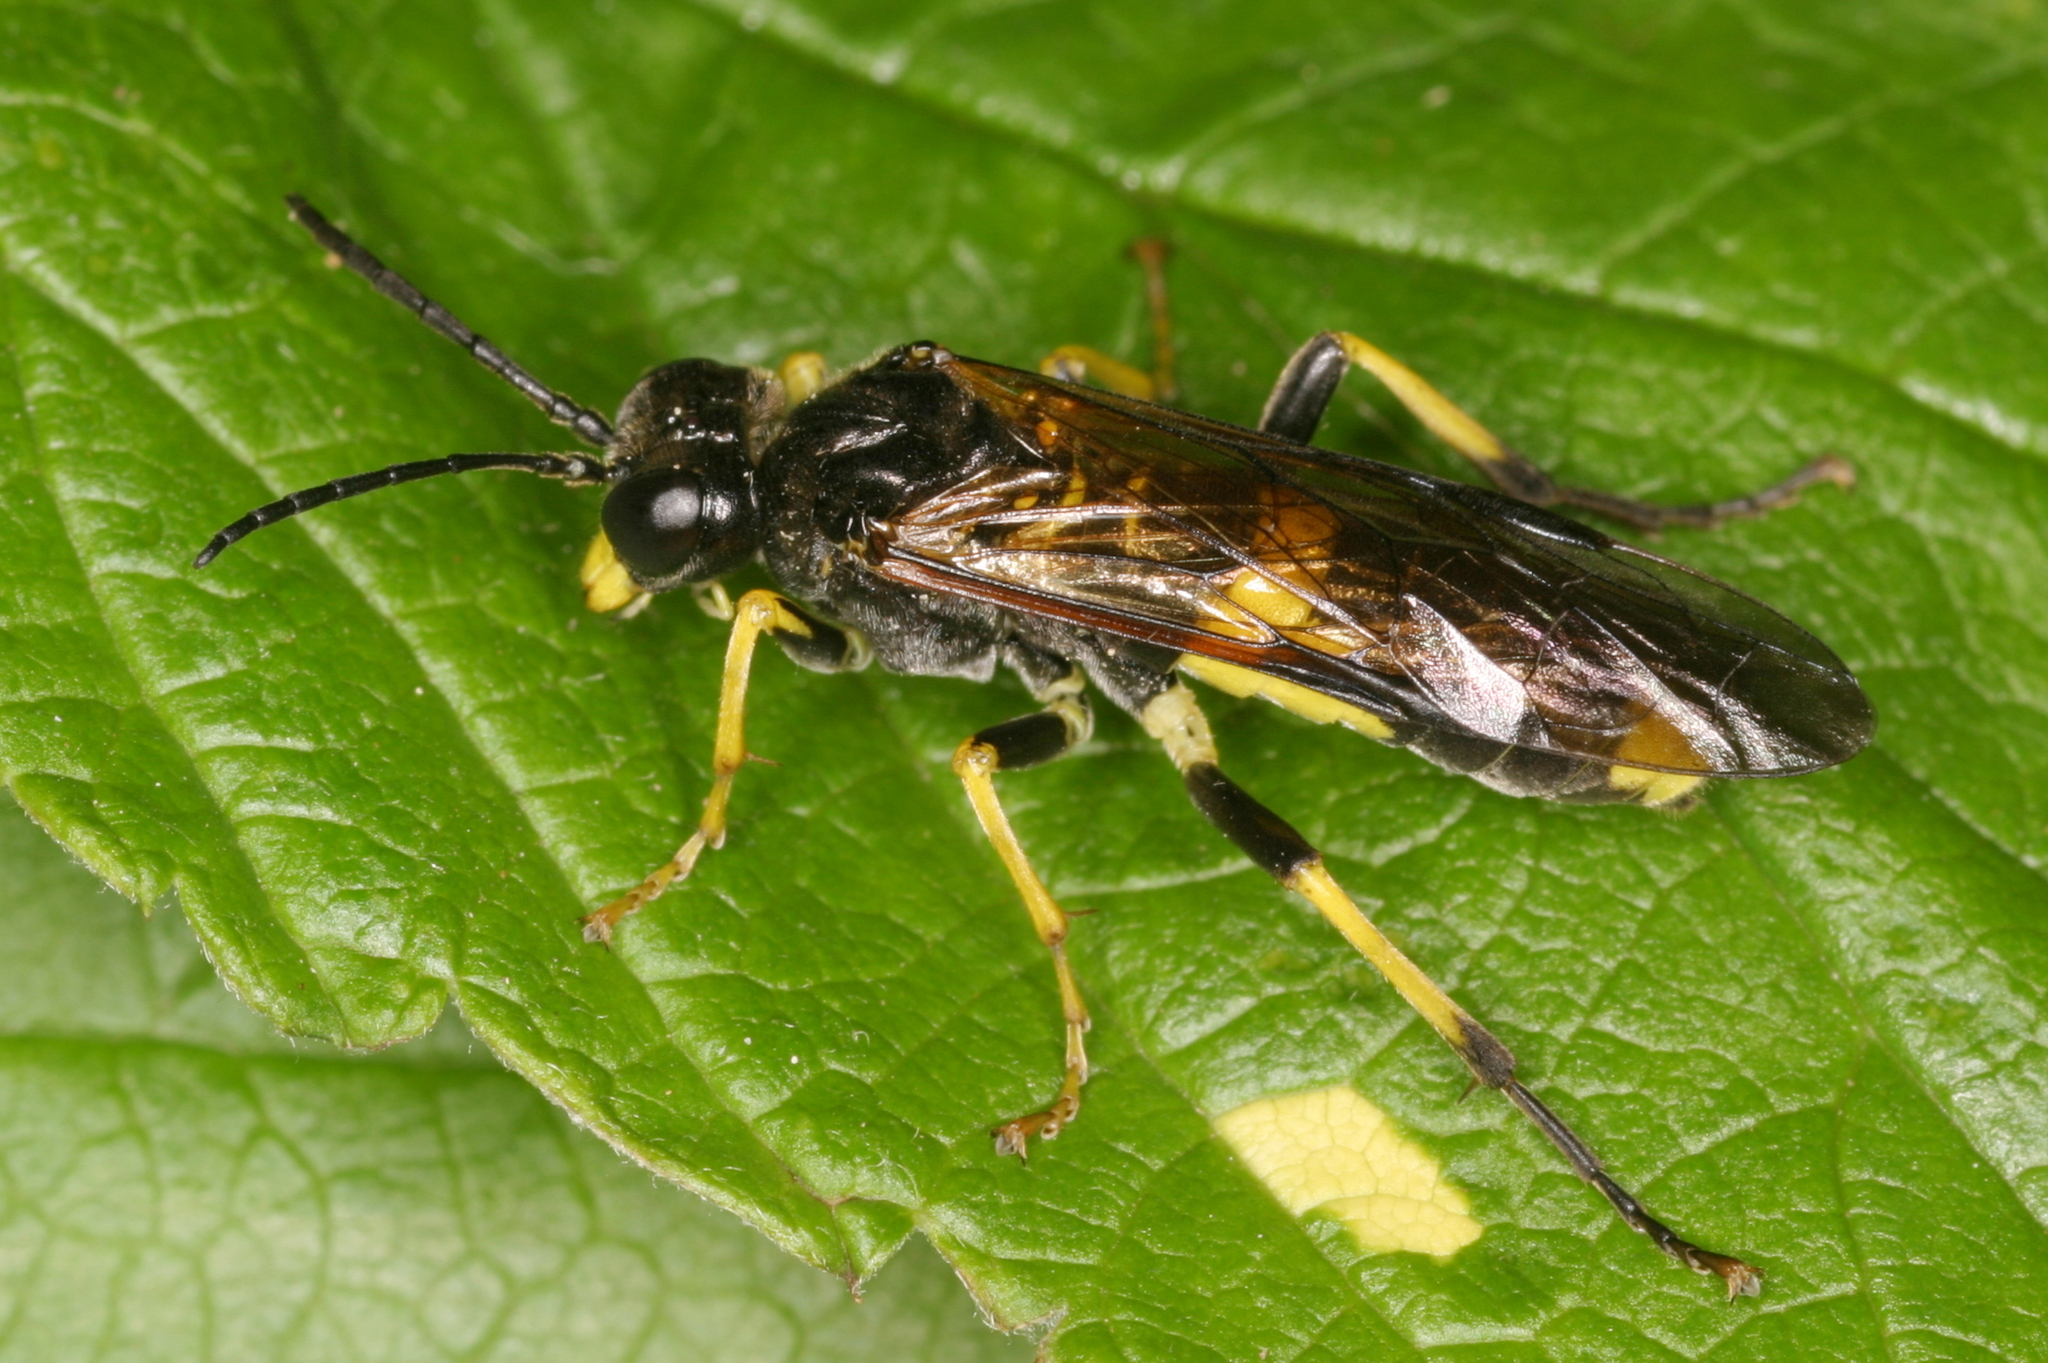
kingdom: Animalia
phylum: Arthropoda
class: Insecta
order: Hymenoptera
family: Tenthredinidae
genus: Tenthredo
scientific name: Tenthredo temula
